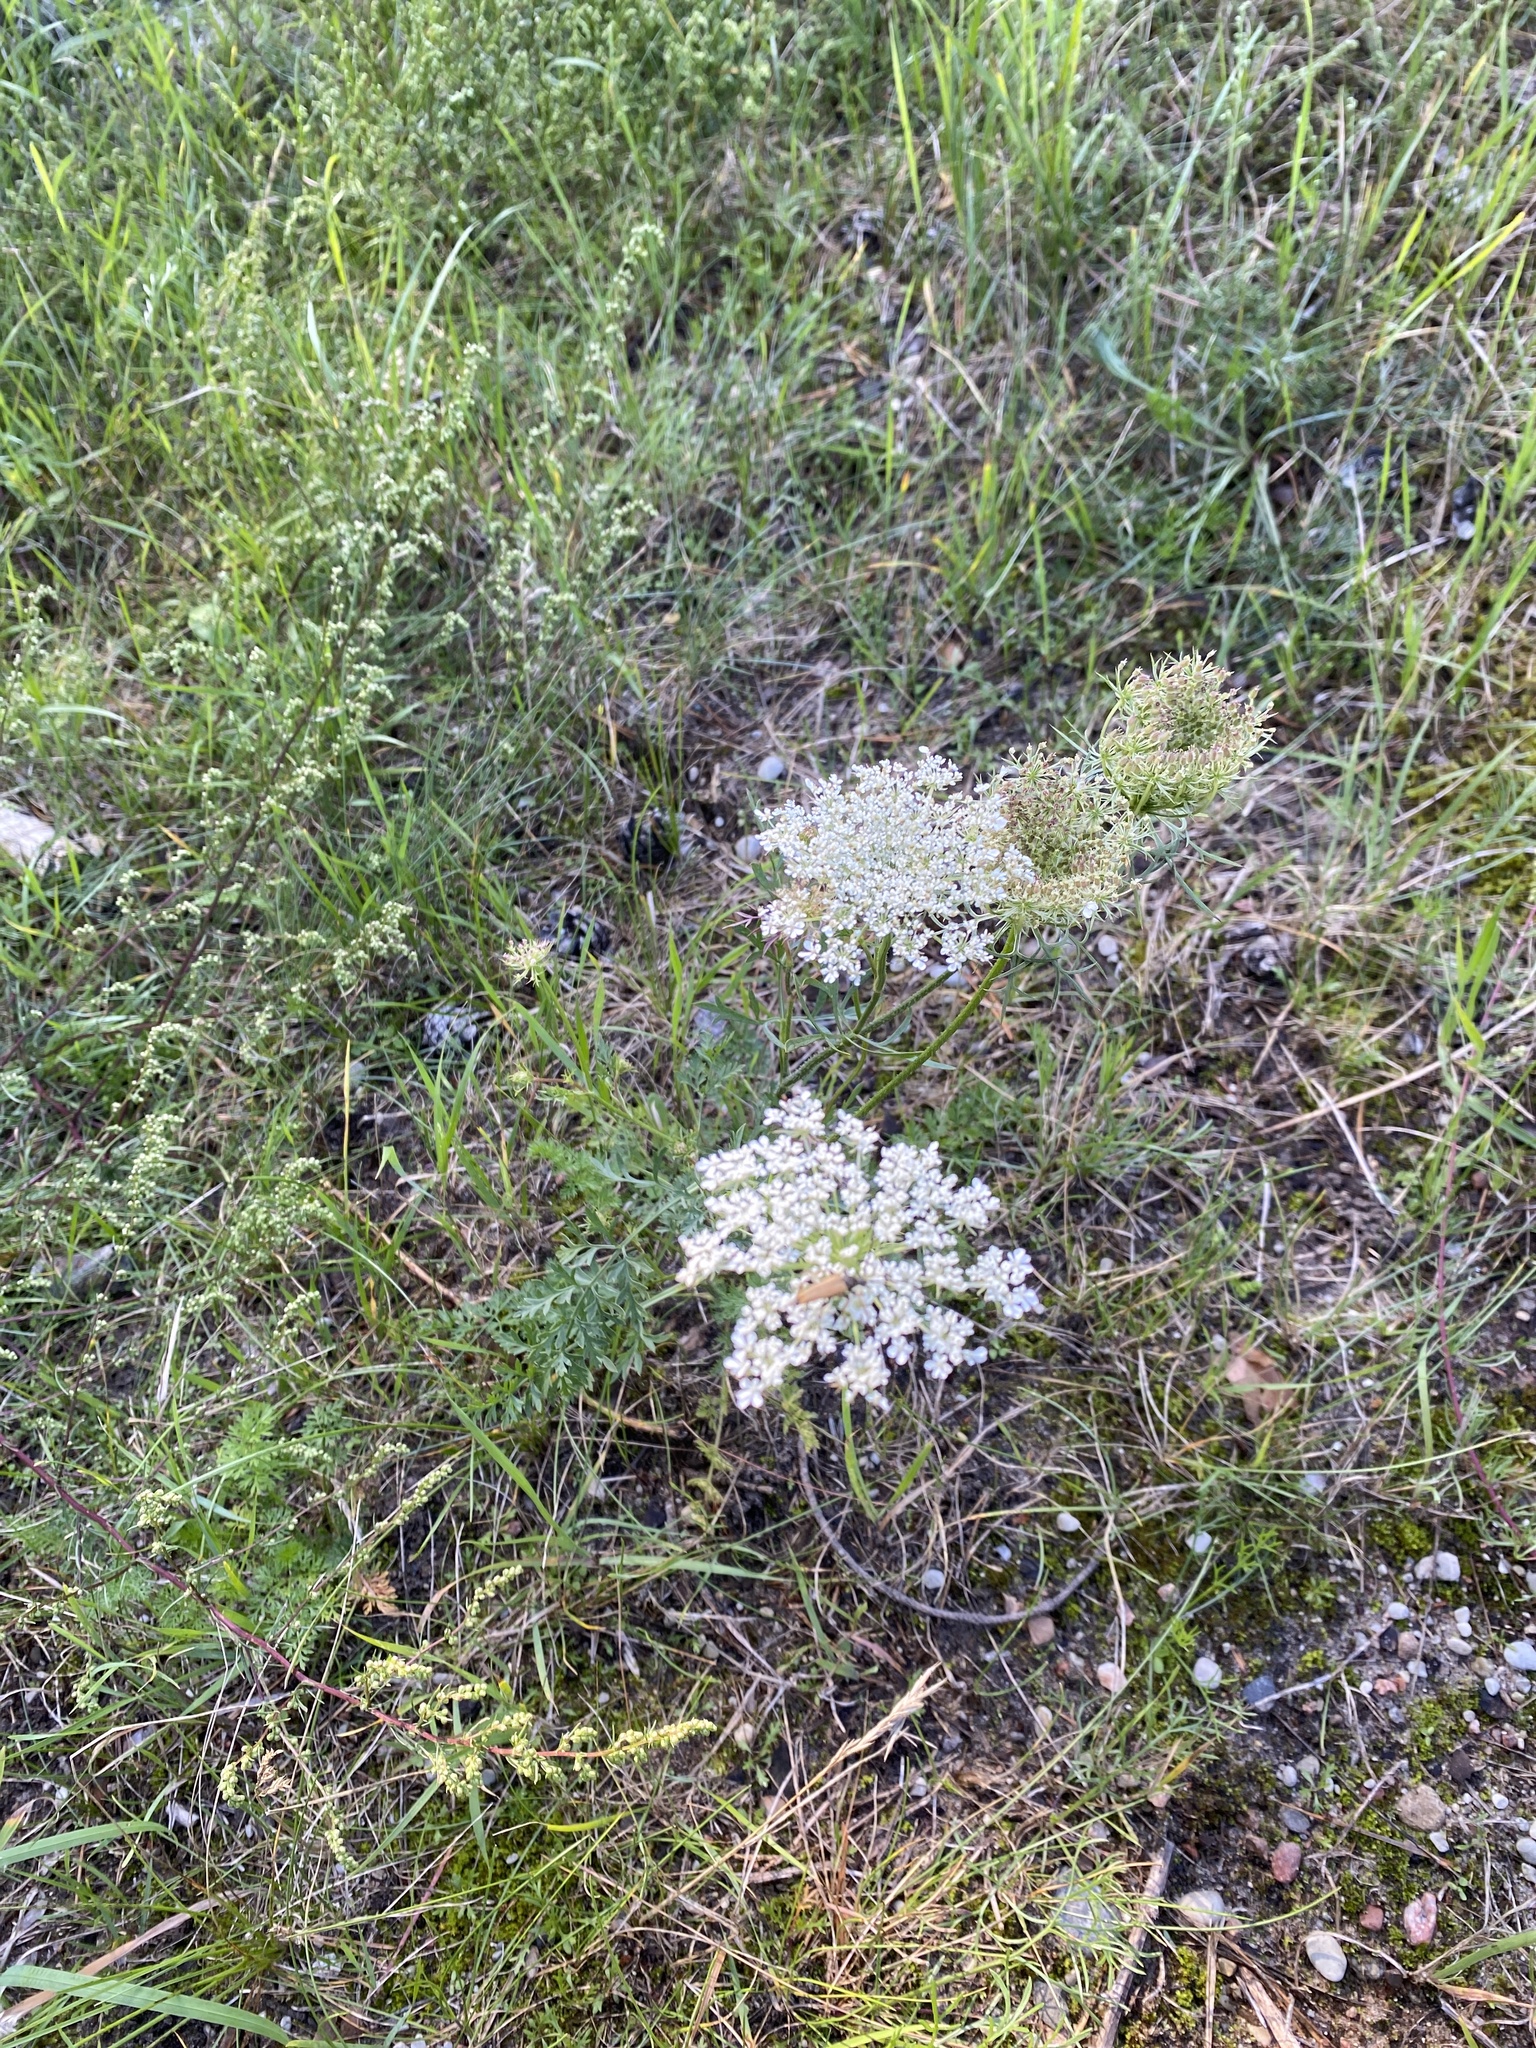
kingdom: Plantae
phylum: Tracheophyta
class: Magnoliopsida
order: Apiales
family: Apiaceae
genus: Daucus
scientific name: Daucus carota
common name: Wild carrot
